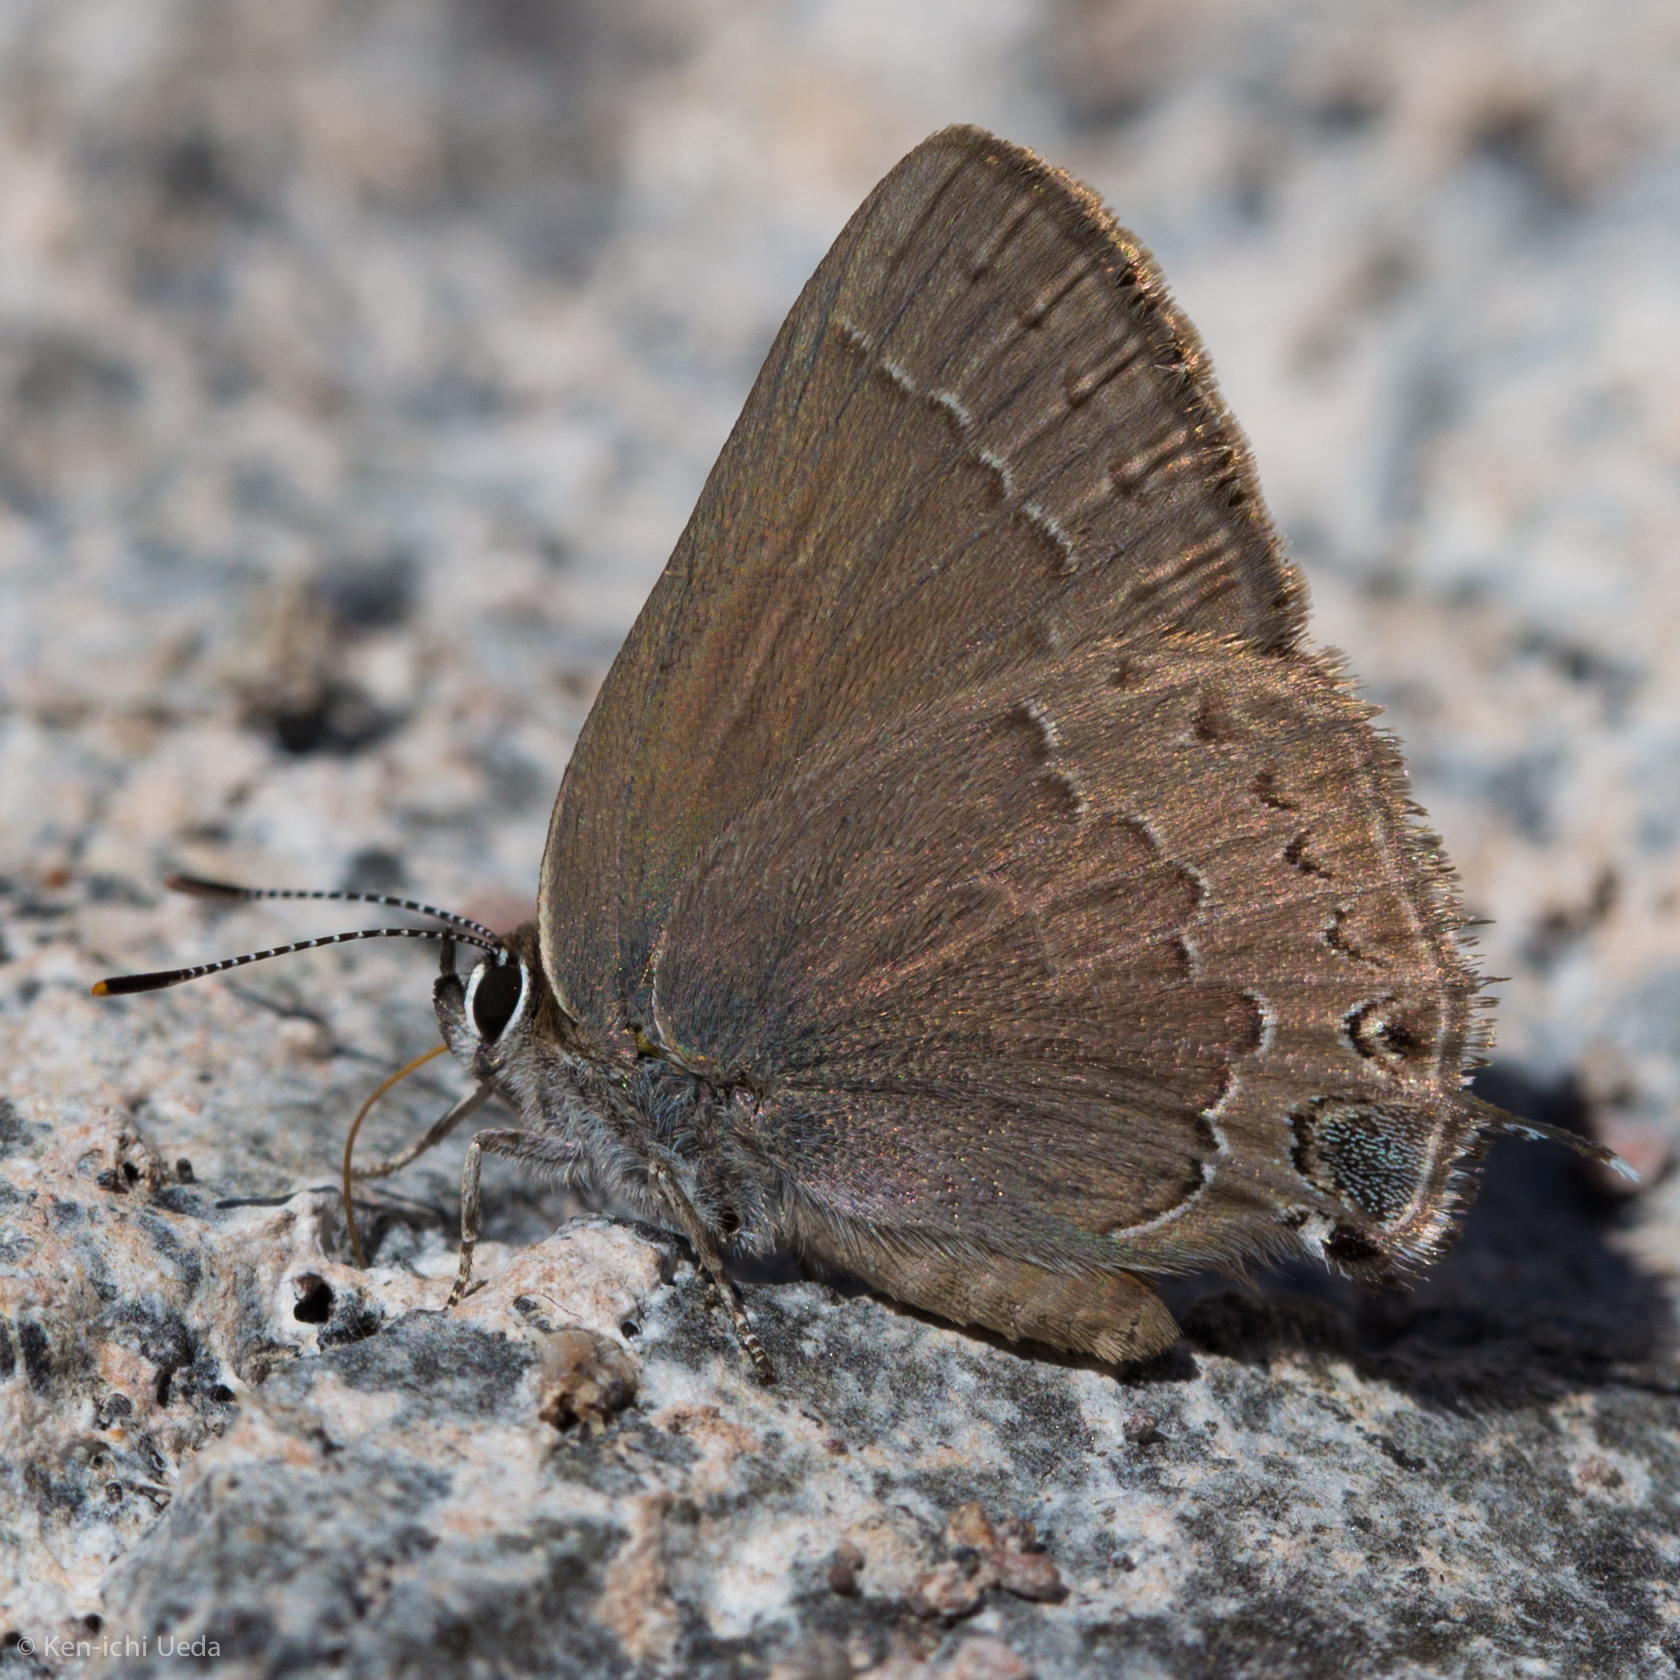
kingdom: Animalia
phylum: Arthropoda
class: Insecta
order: Lepidoptera
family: Lycaenidae
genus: Strymon
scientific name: Strymon saepium
